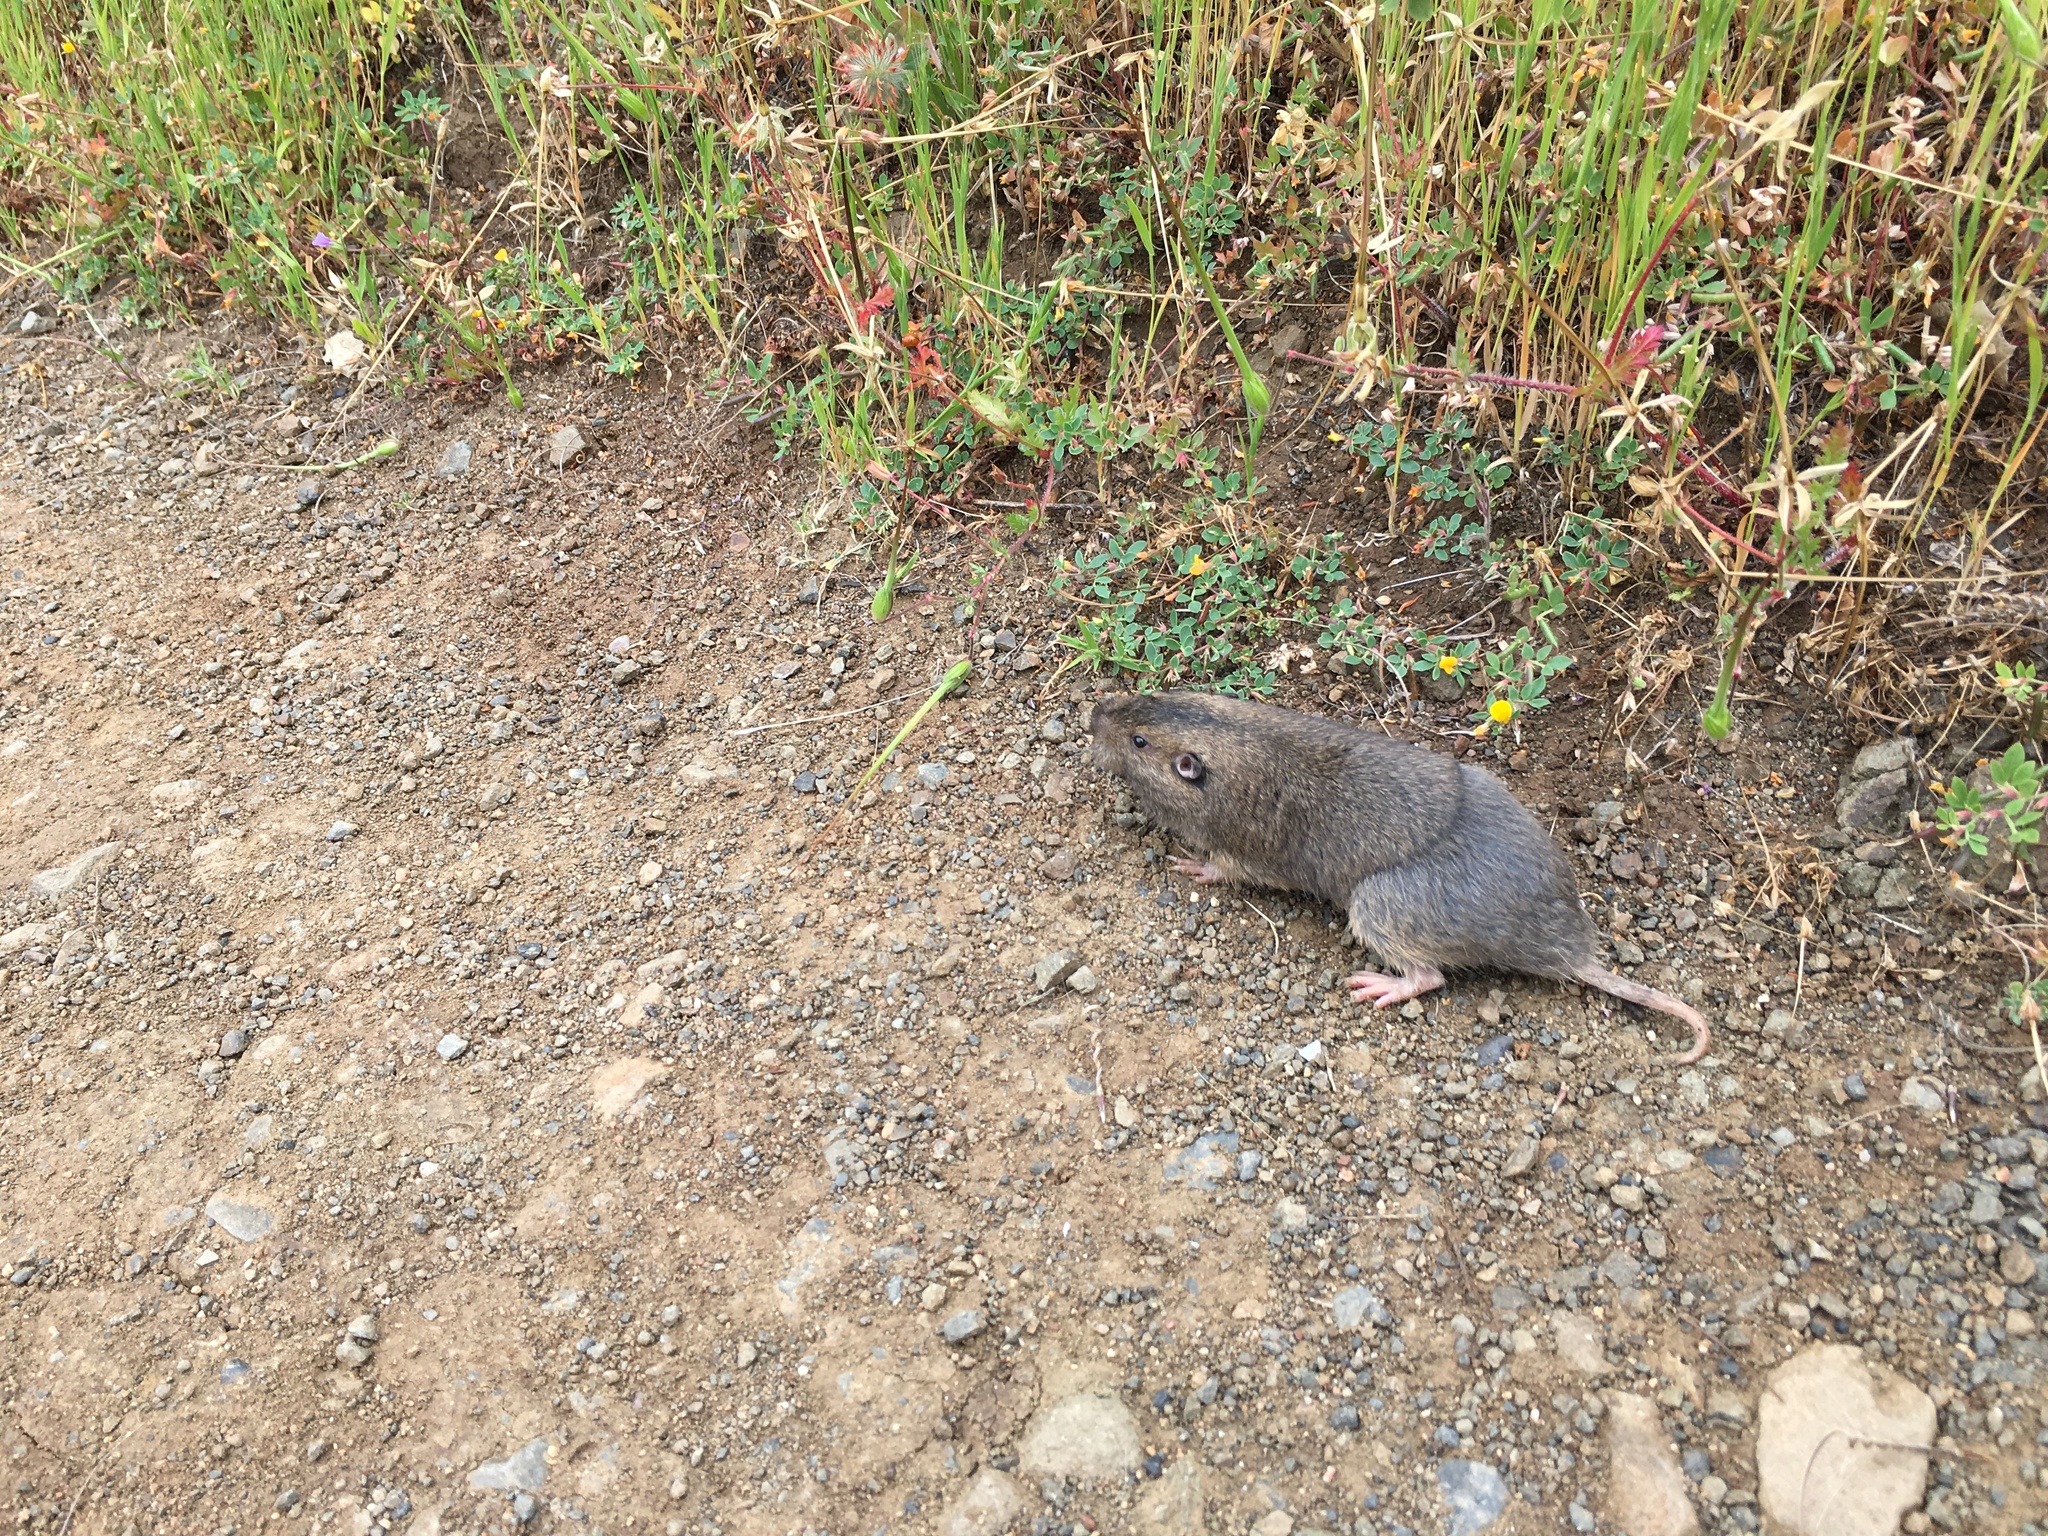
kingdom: Animalia
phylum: Chordata
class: Mammalia
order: Rodentia
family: Geomyidae
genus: Thomomys
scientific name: Thomomys bottae
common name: Botta's pocket gopher
